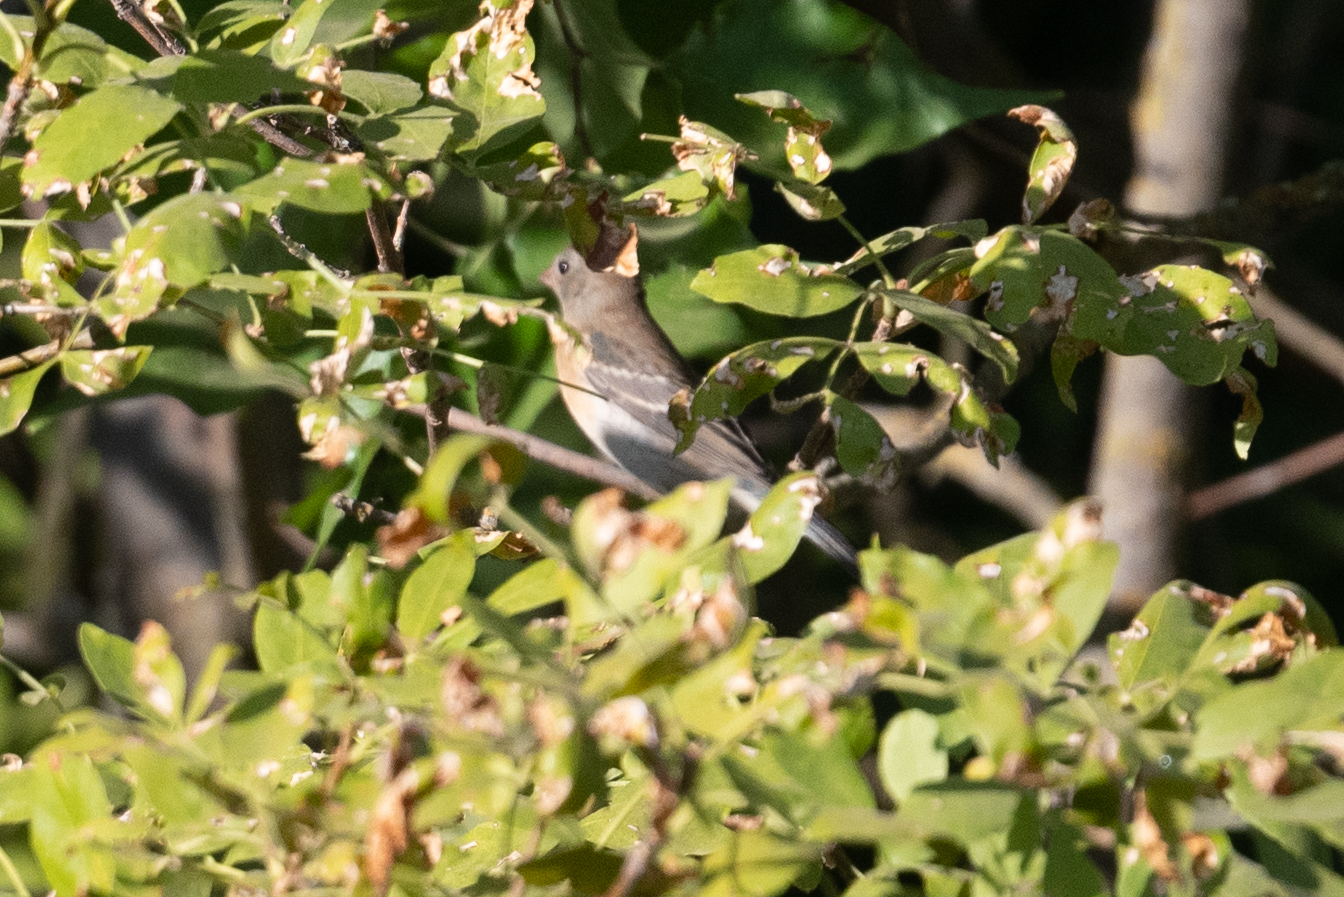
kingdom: Animalia
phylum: Chordata
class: Aves
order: Passeriformes
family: Cardinalidae
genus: Passerina
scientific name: Passerina amoena
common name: Lazuli bunting
